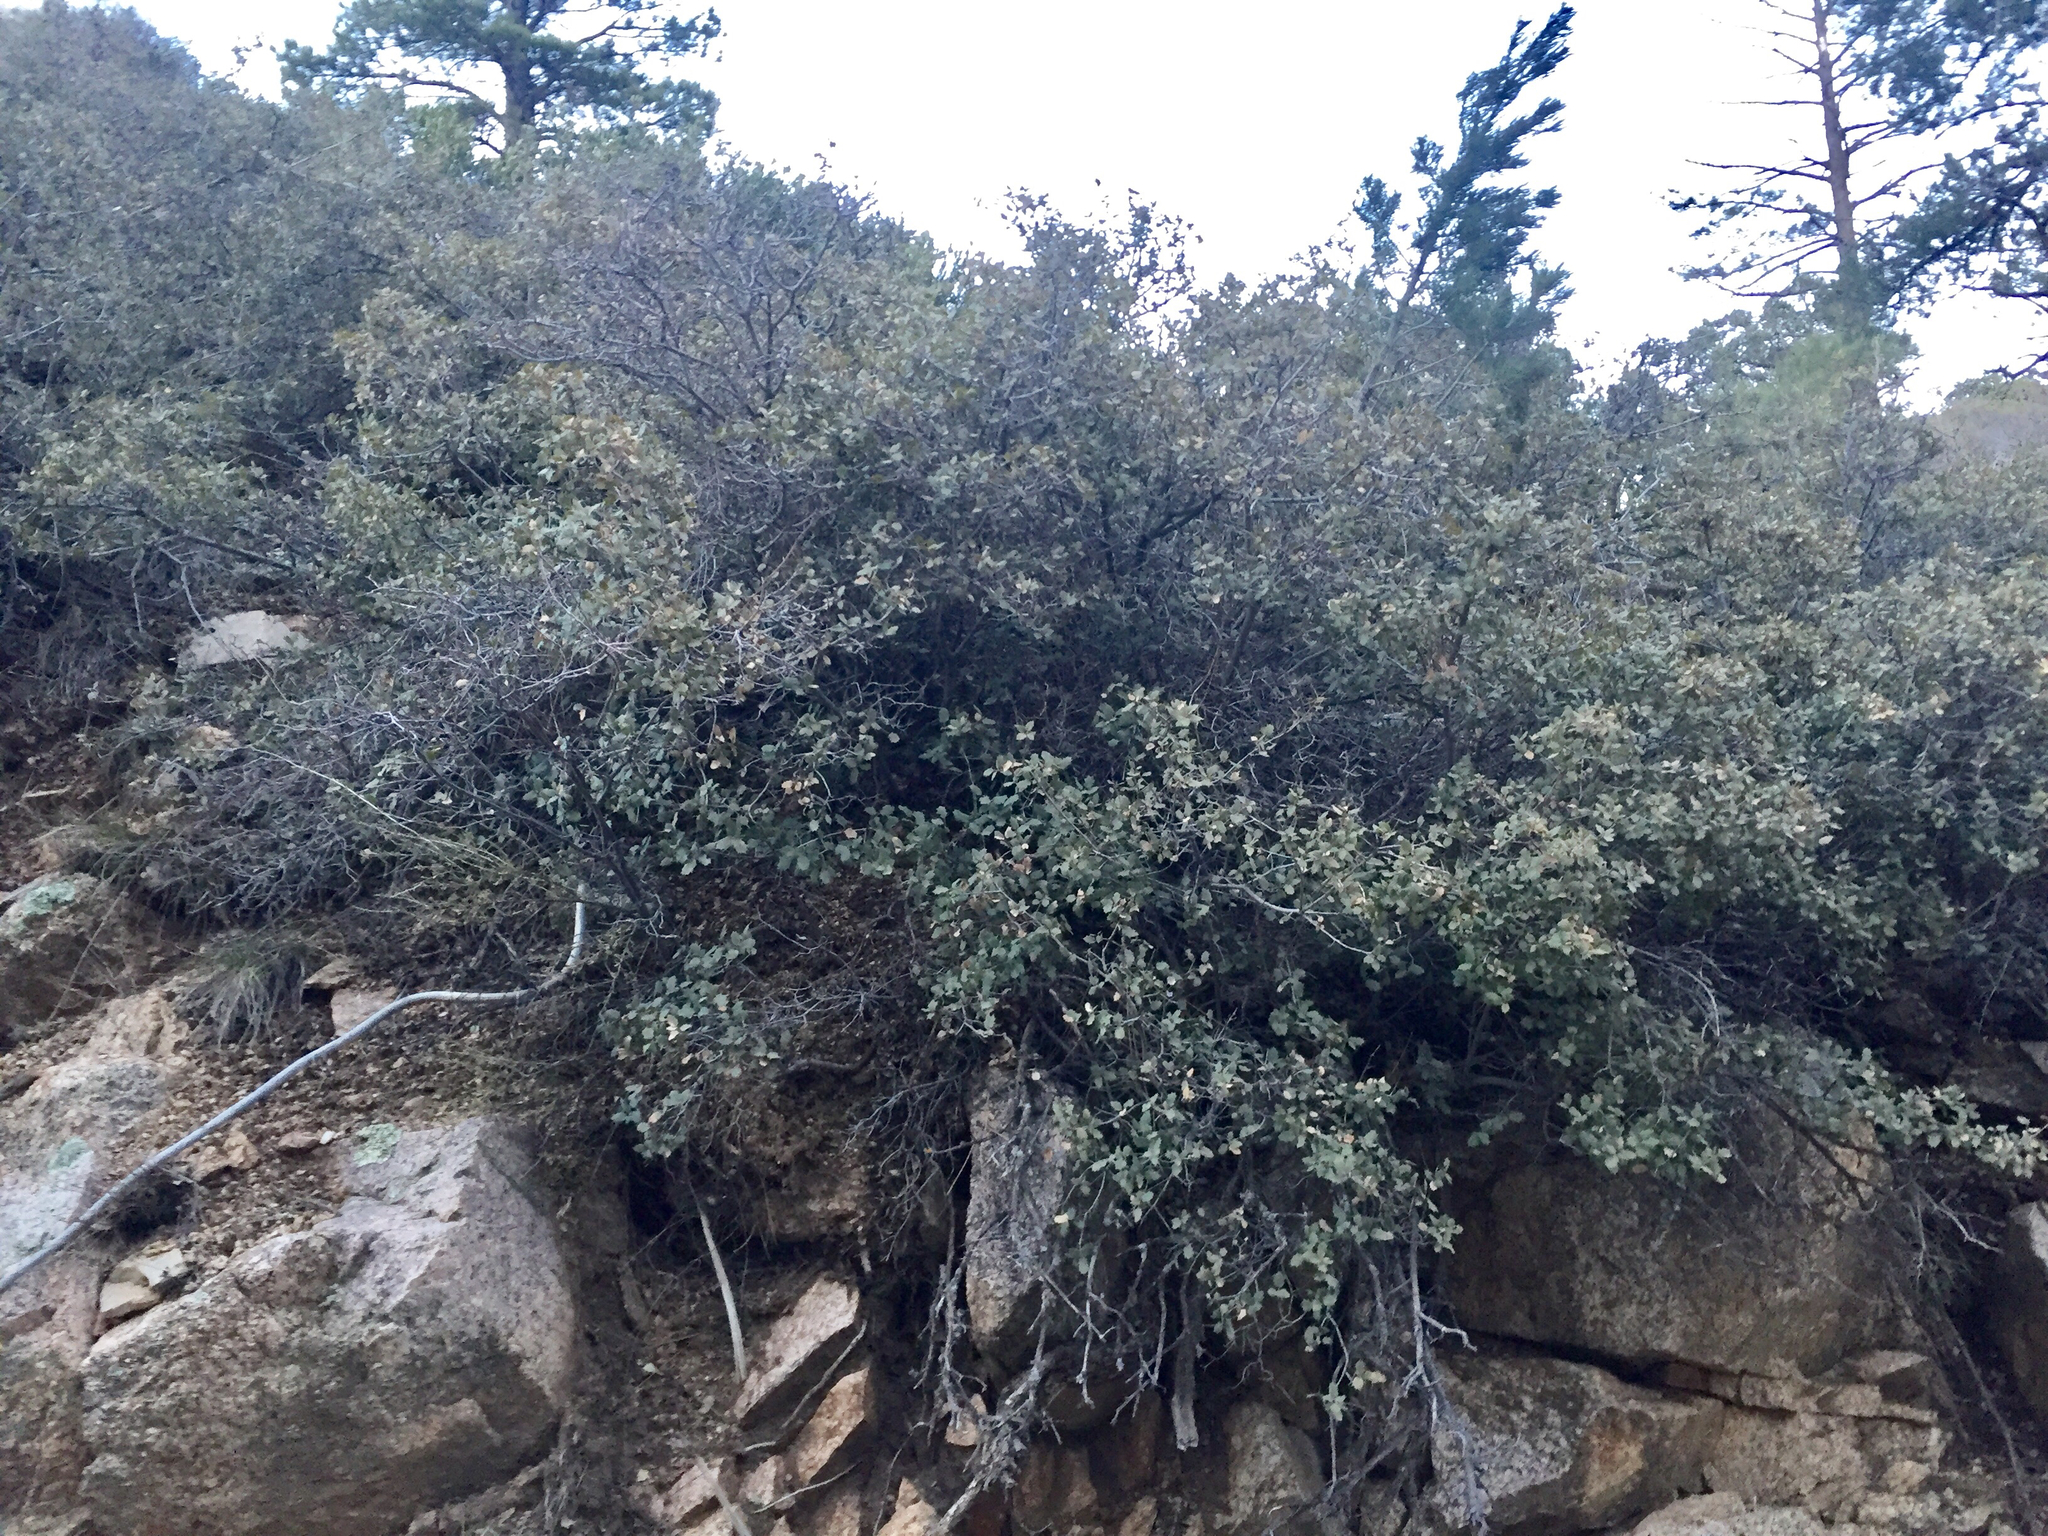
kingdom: Plantae
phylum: Tracheophyta
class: Magnoliopsida
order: Fagales
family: Fagaceae
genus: Quercus
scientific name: Quercus turbinella
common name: Sonoran scrub oak
